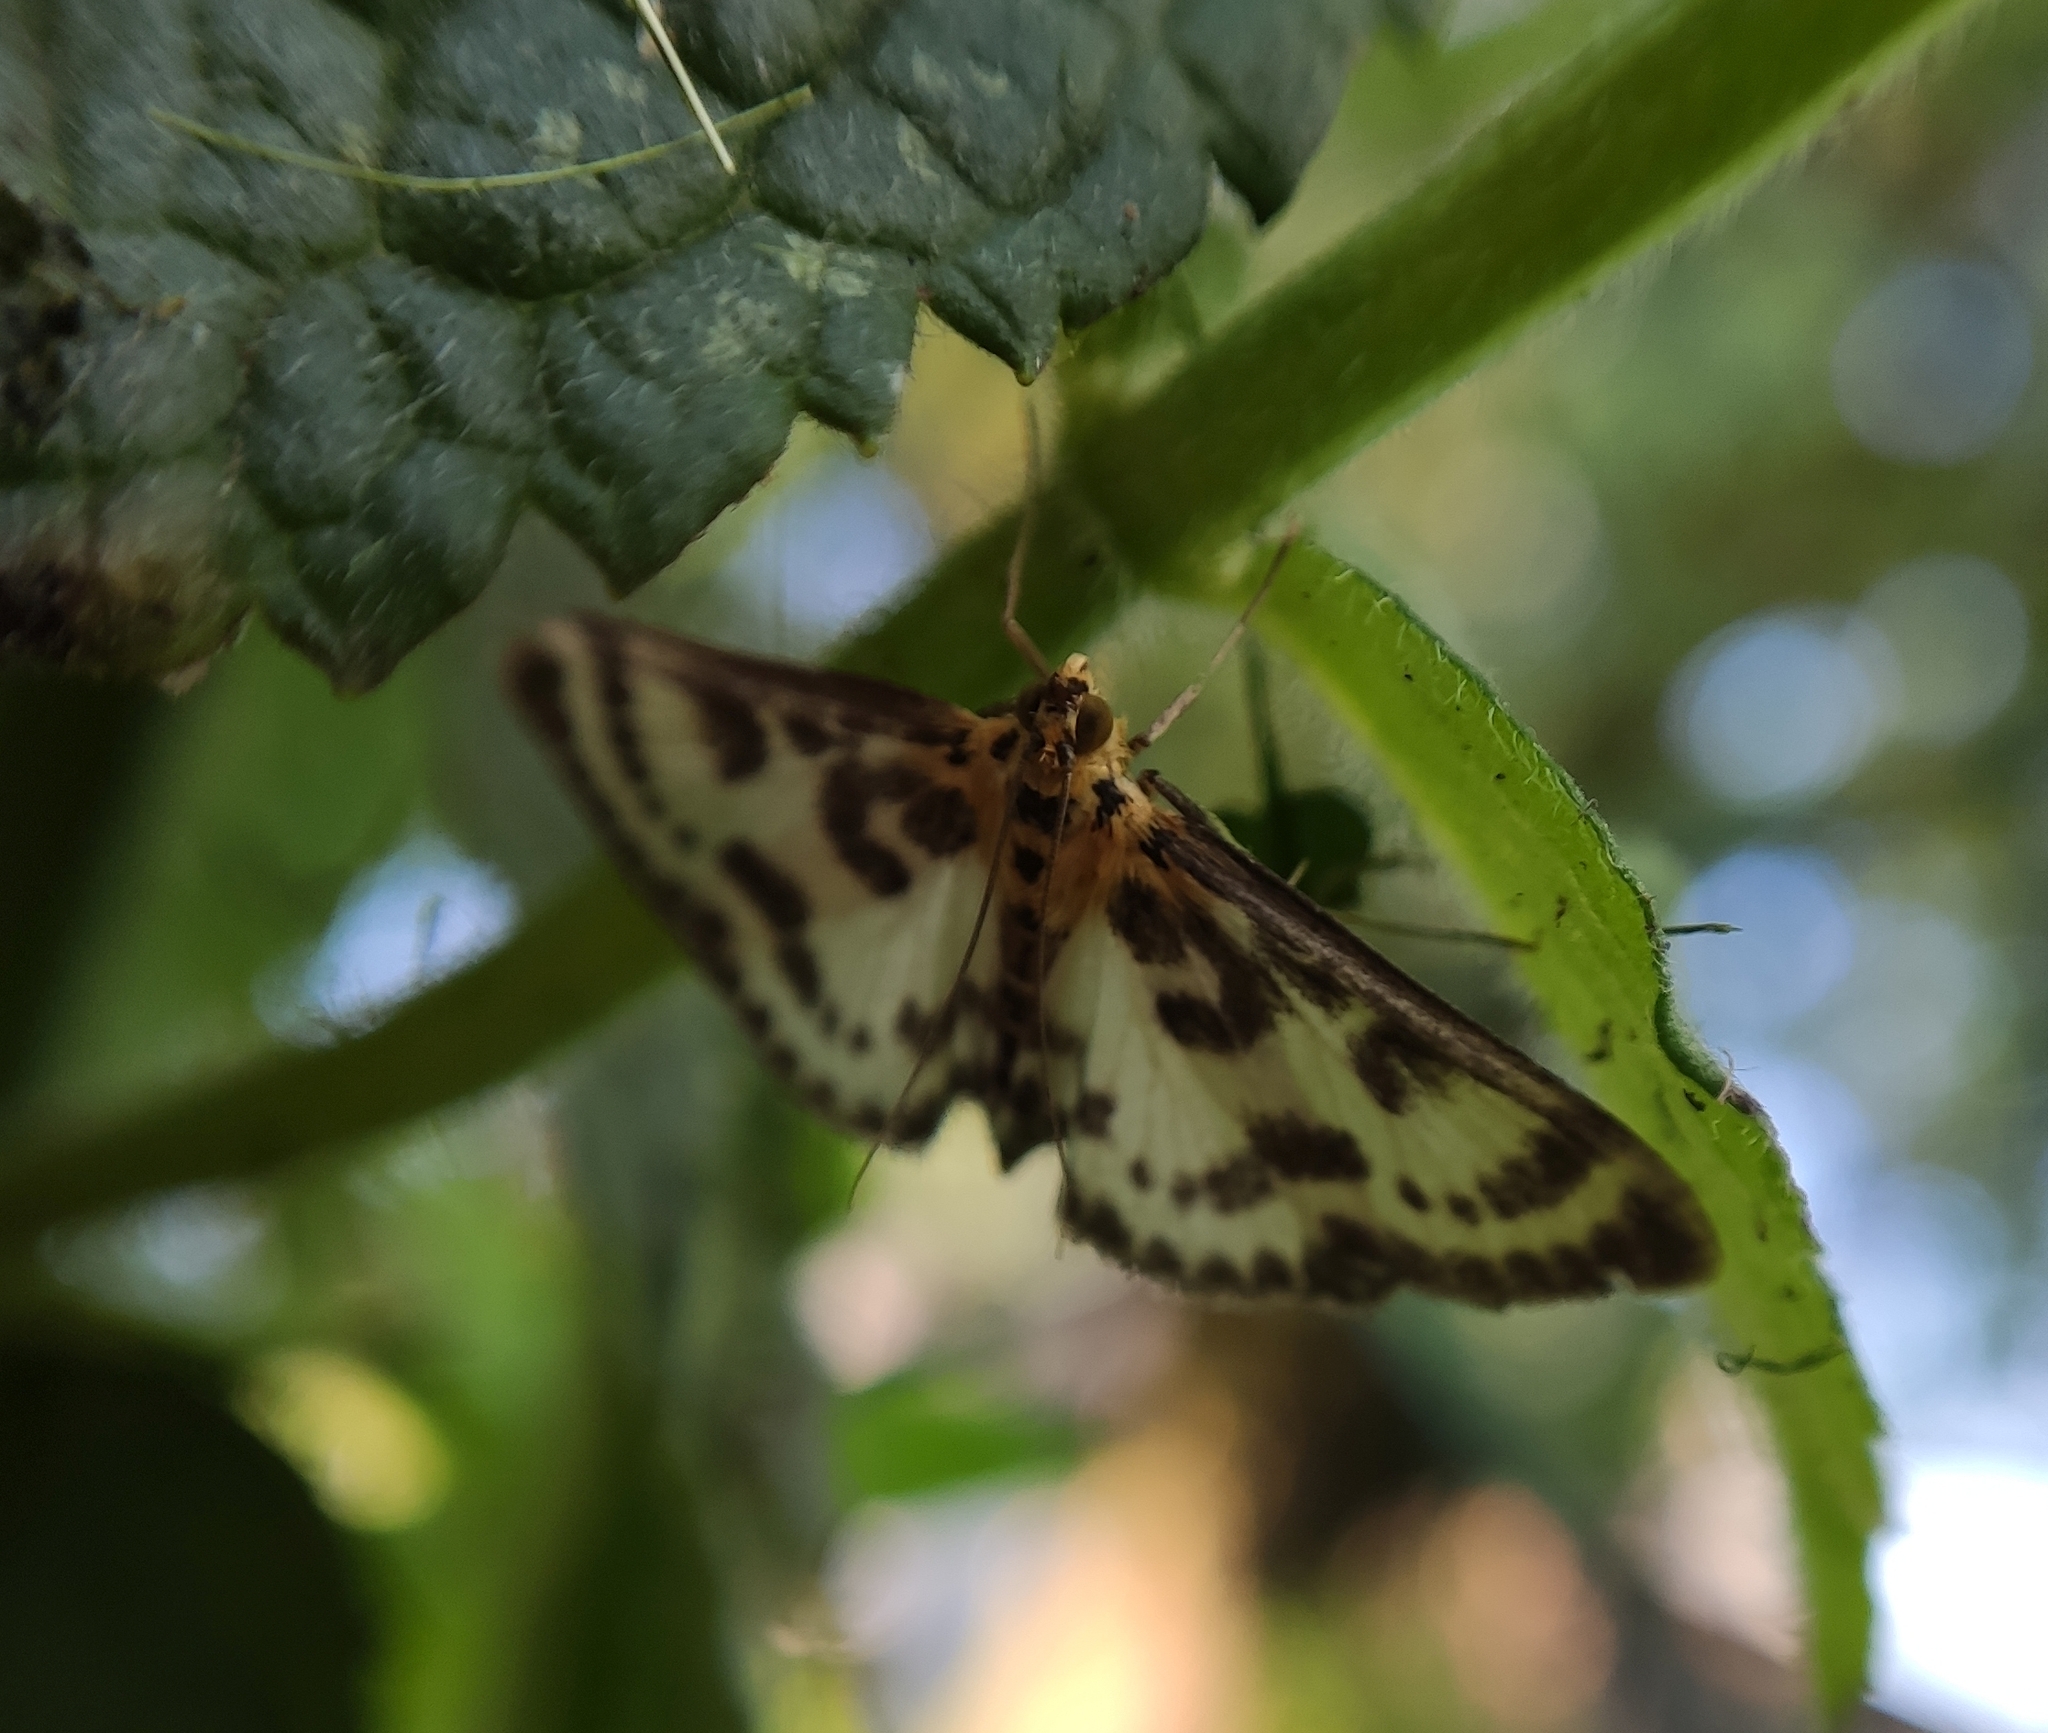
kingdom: Animalia
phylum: Arthropoda
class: Insecta
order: Lepidoptera
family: Crambidae
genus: Anania
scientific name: Anania hortulata
